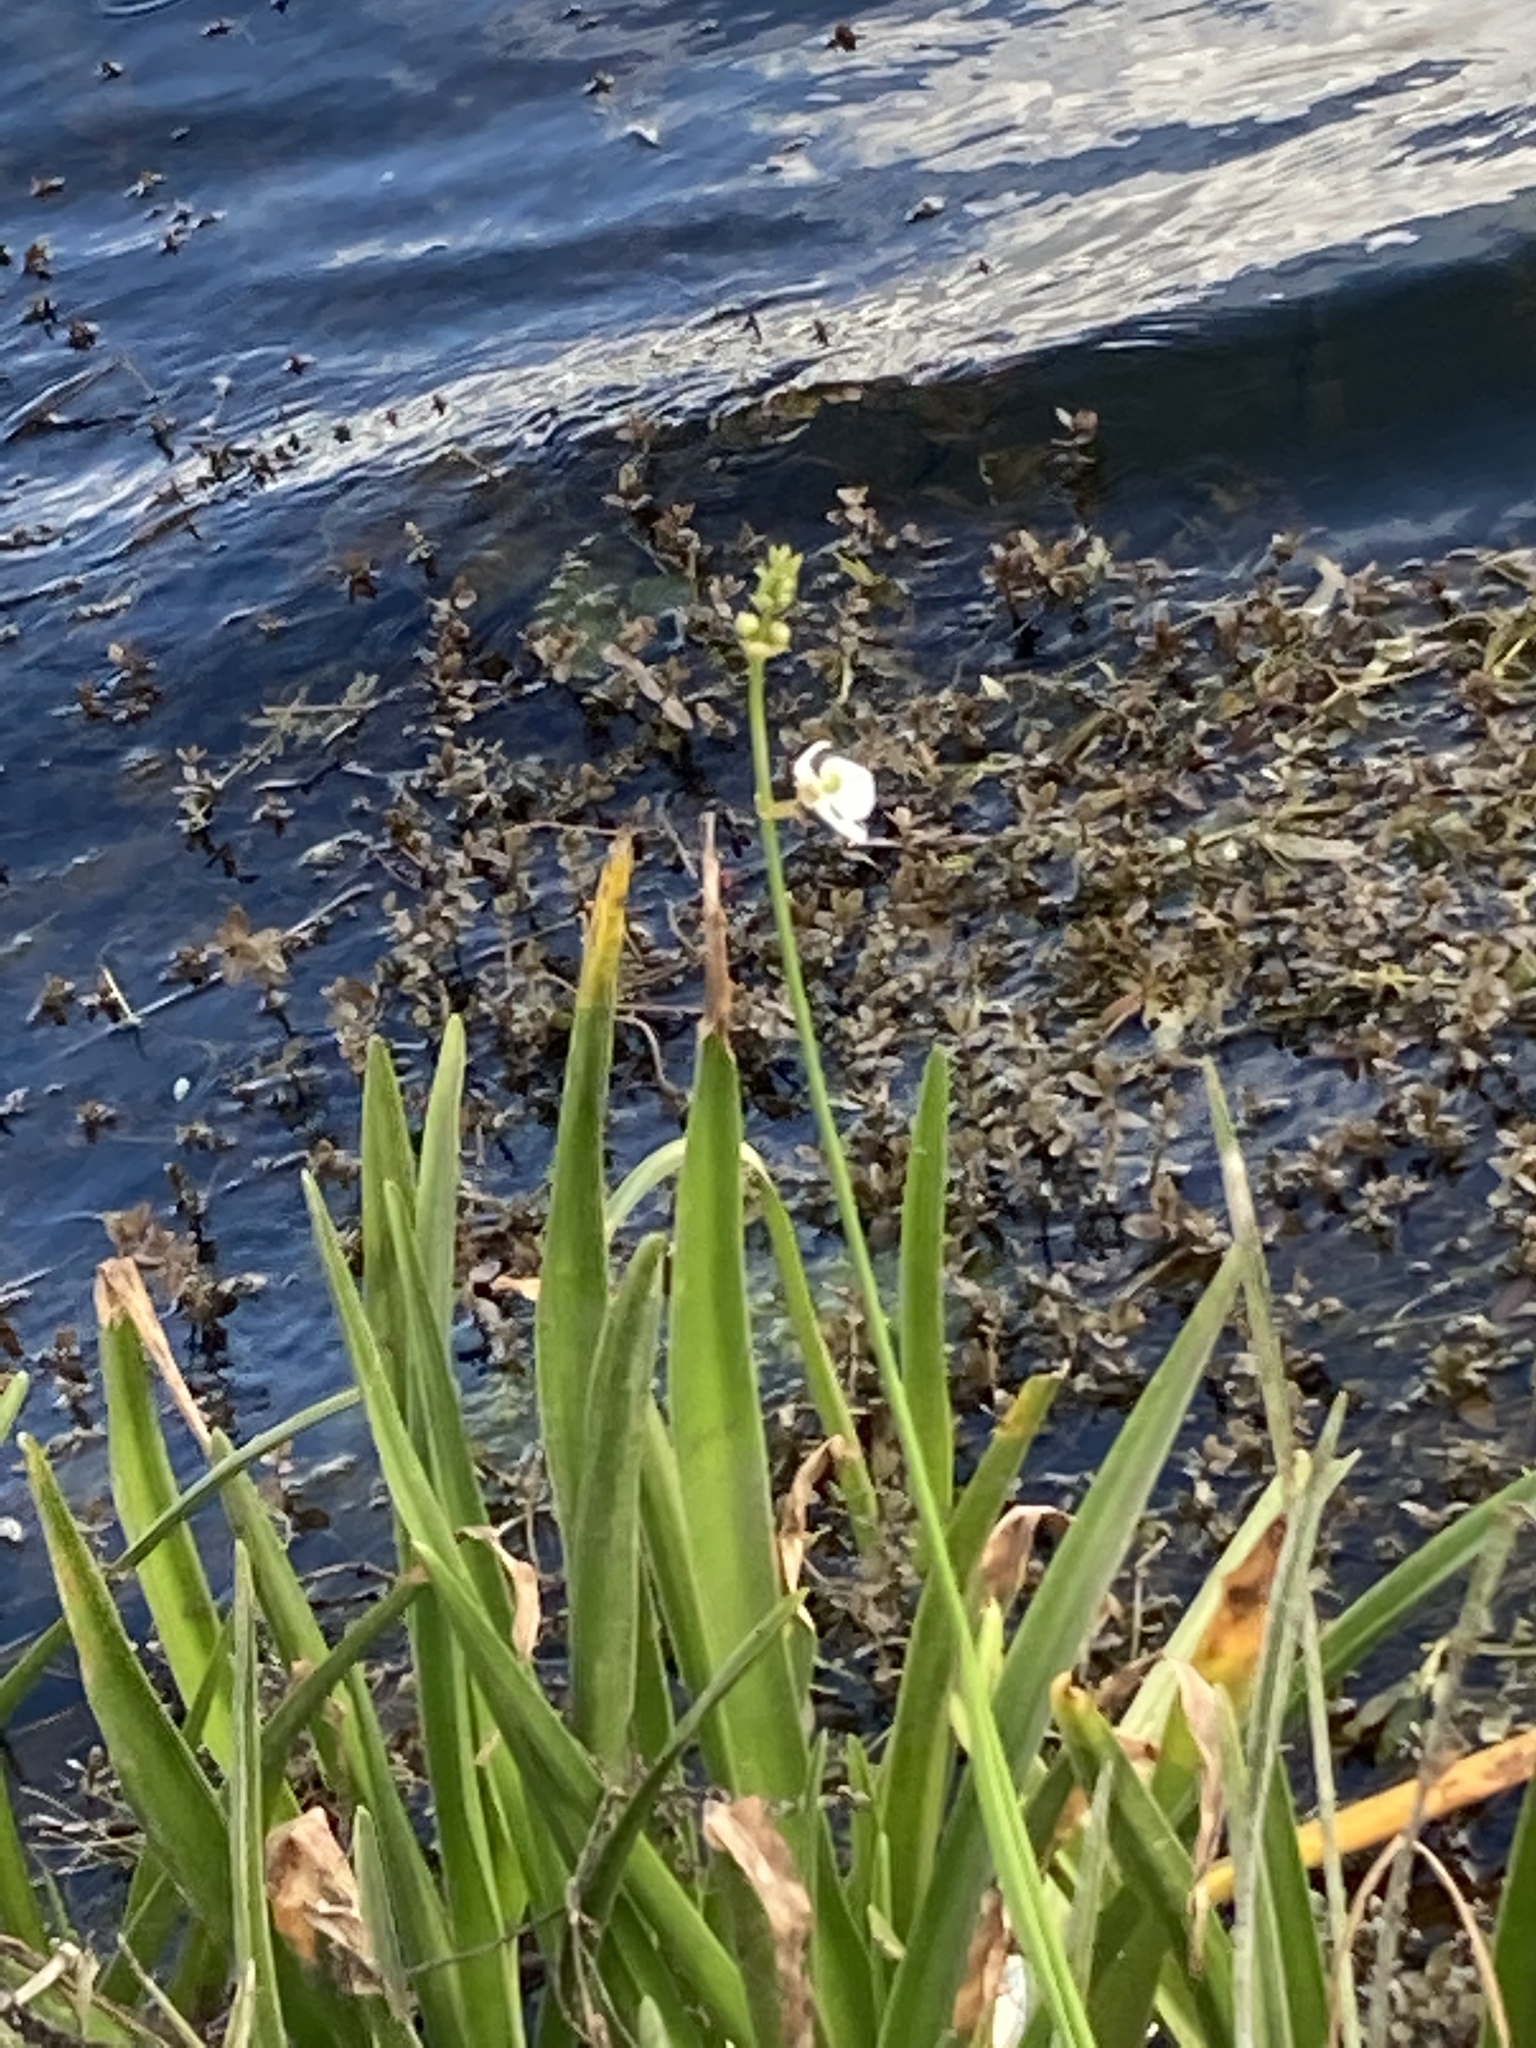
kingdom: Plantae
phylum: Tracheophyta
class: Liliopsida
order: Alismatales
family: Alismataceae
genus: Sagittaria
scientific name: Sagittaria lancifolia
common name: Lance-leaf arrowhead
